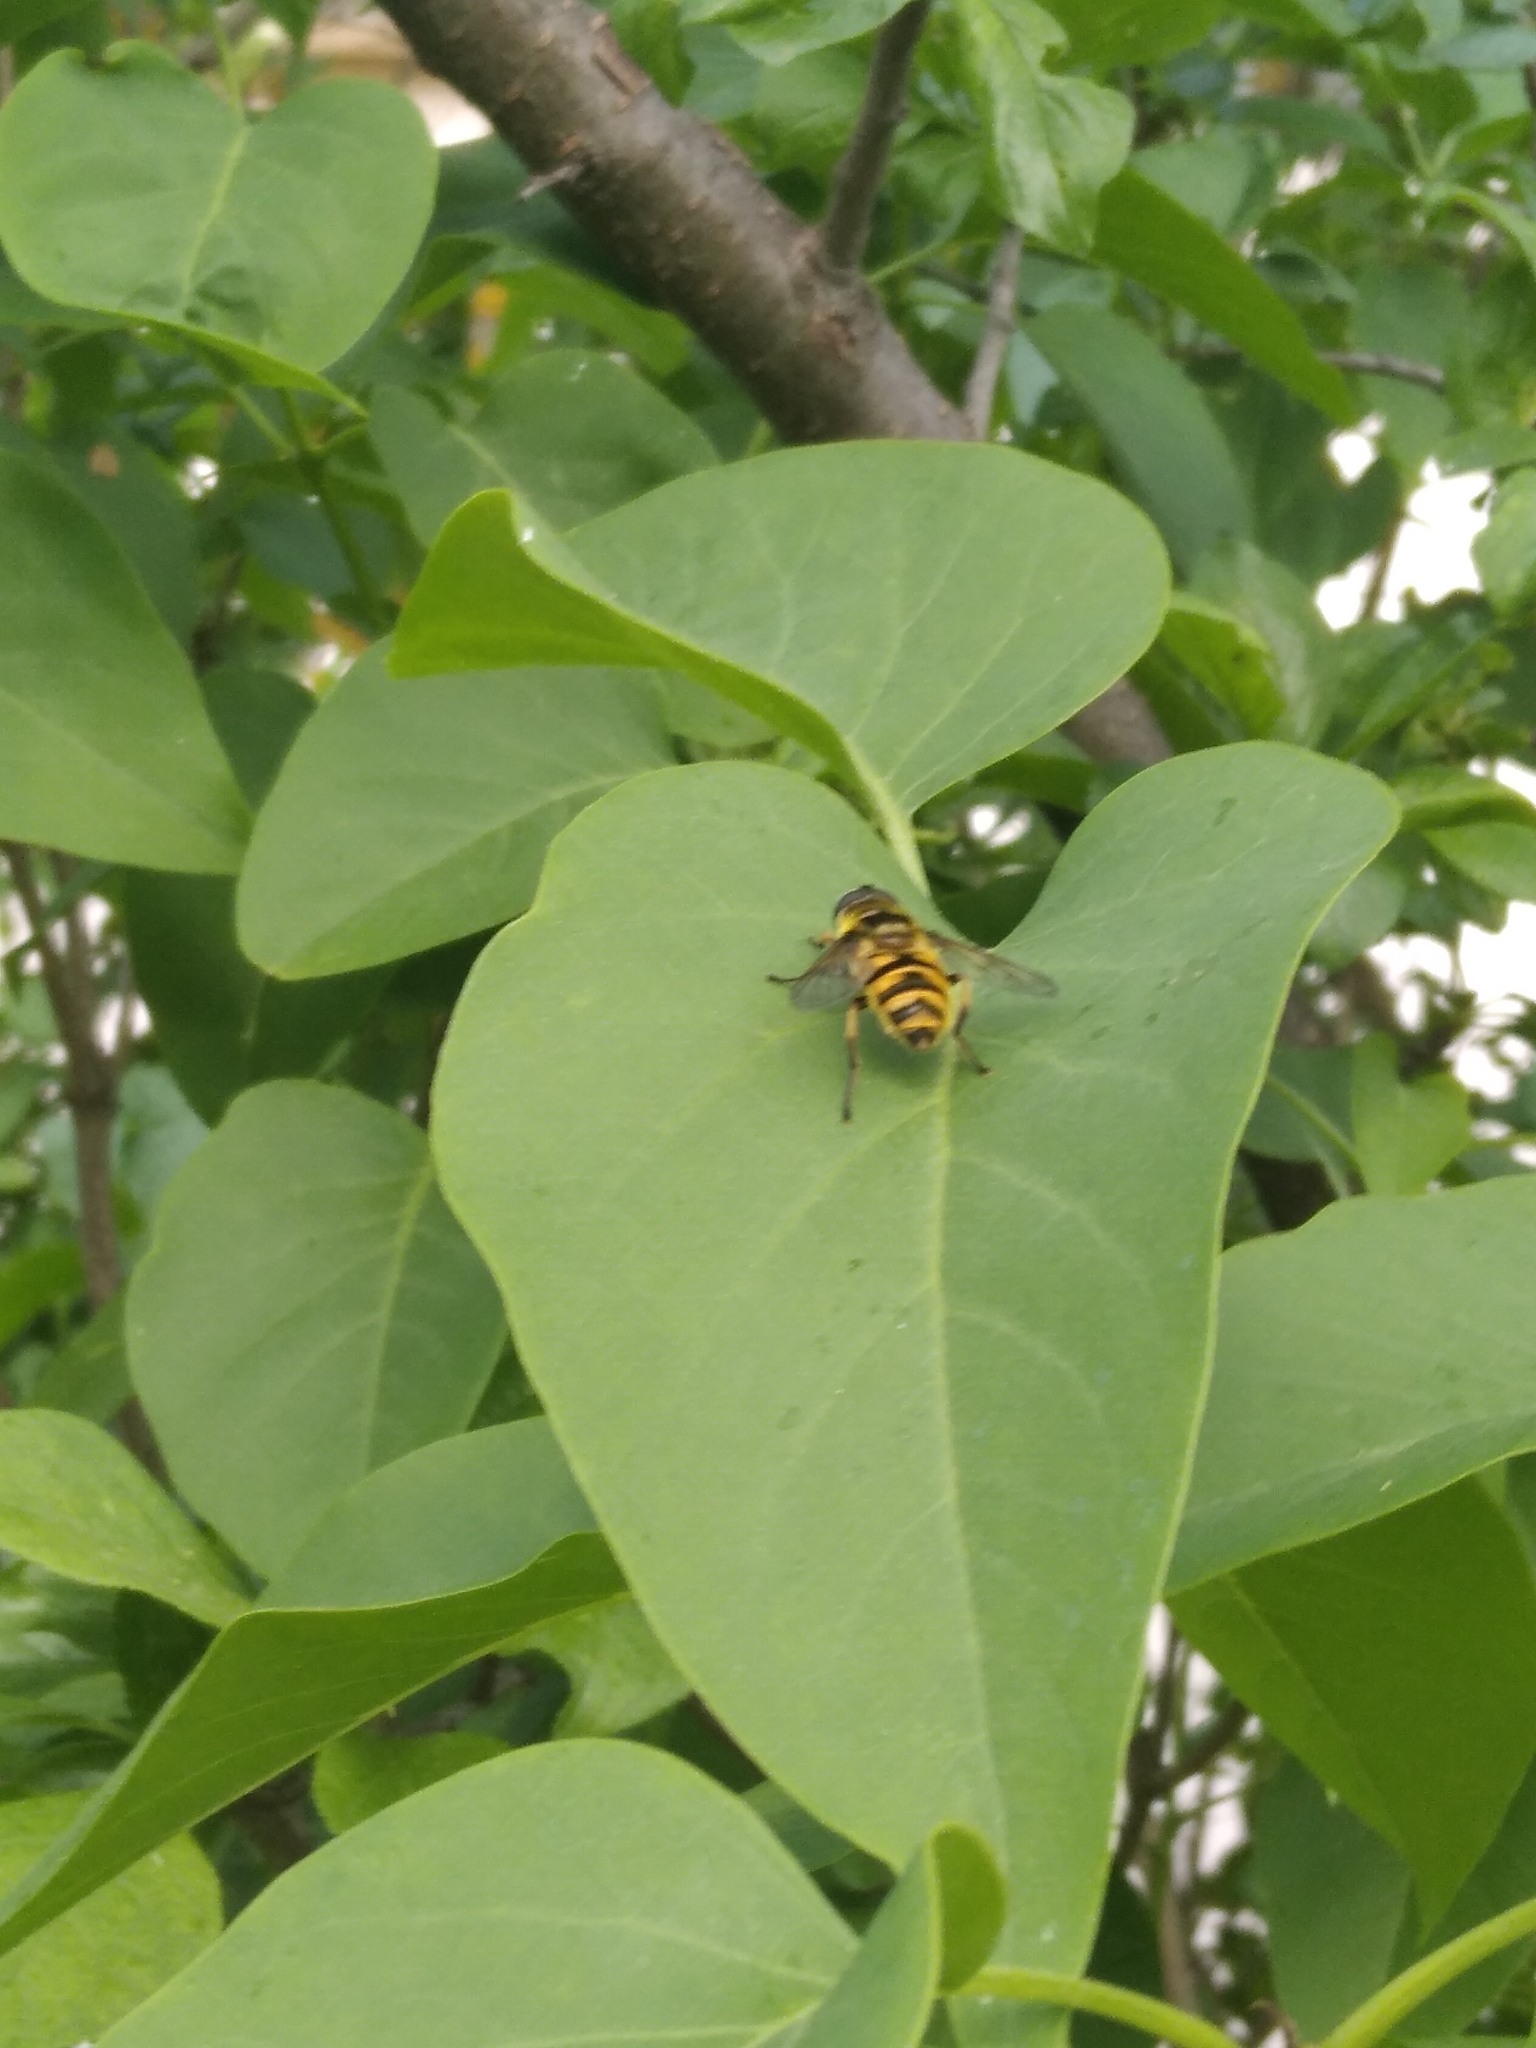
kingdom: Animalia
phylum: Arthropoda
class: Insecta
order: Diptera
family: Syrphidae
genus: Myathropa
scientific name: Myathropa florea
